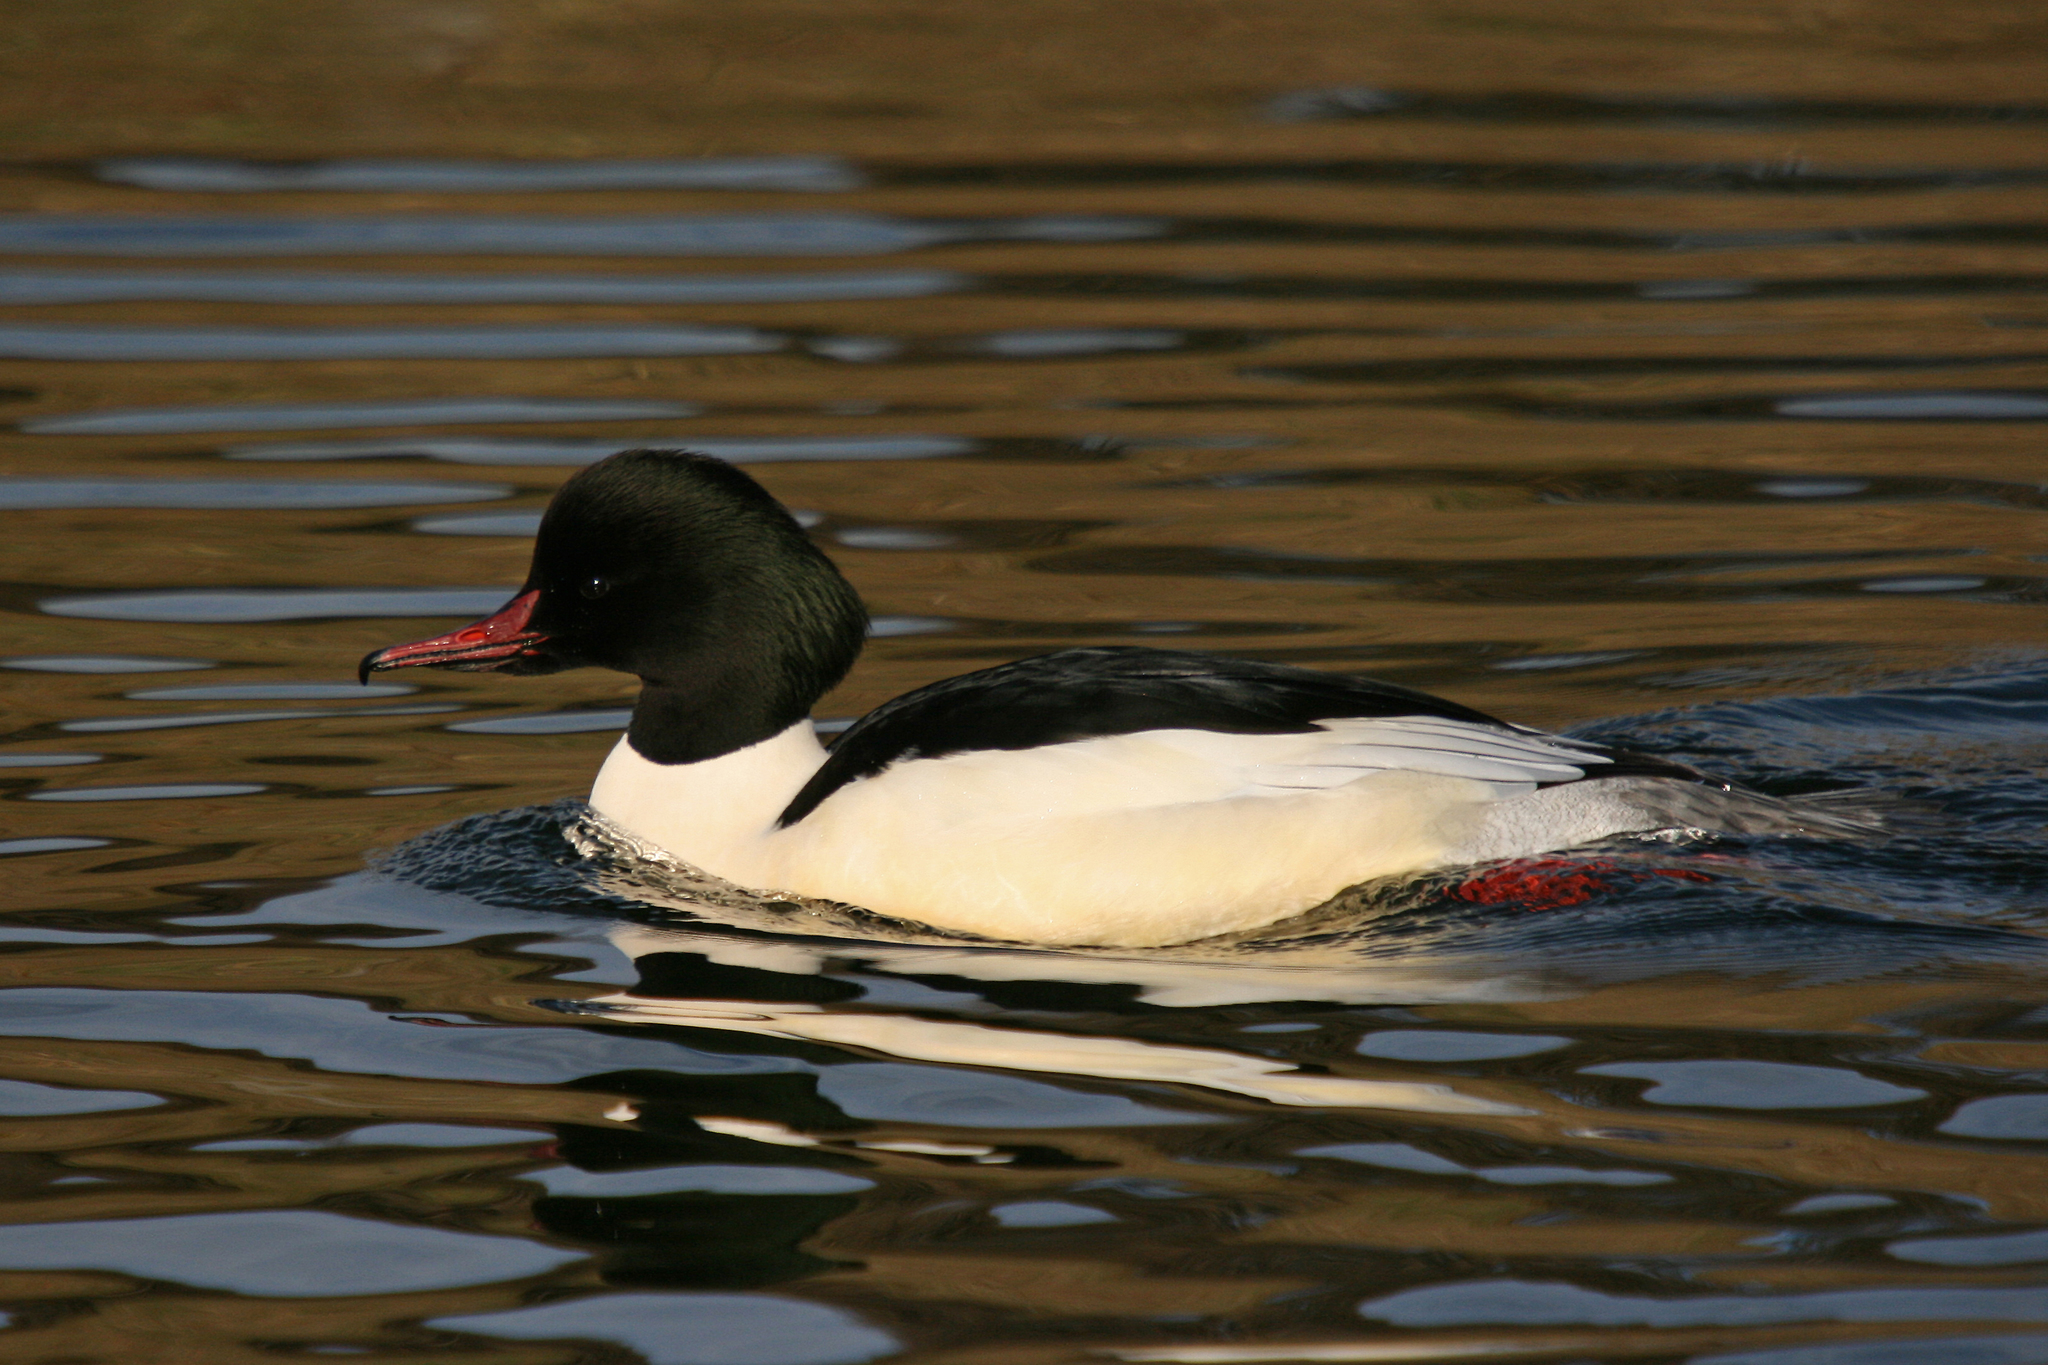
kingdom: Animalia
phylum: Chordata
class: Aves
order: Anseriformes
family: Anatidae
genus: Mergus
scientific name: Mergus merganser
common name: Common merganser
